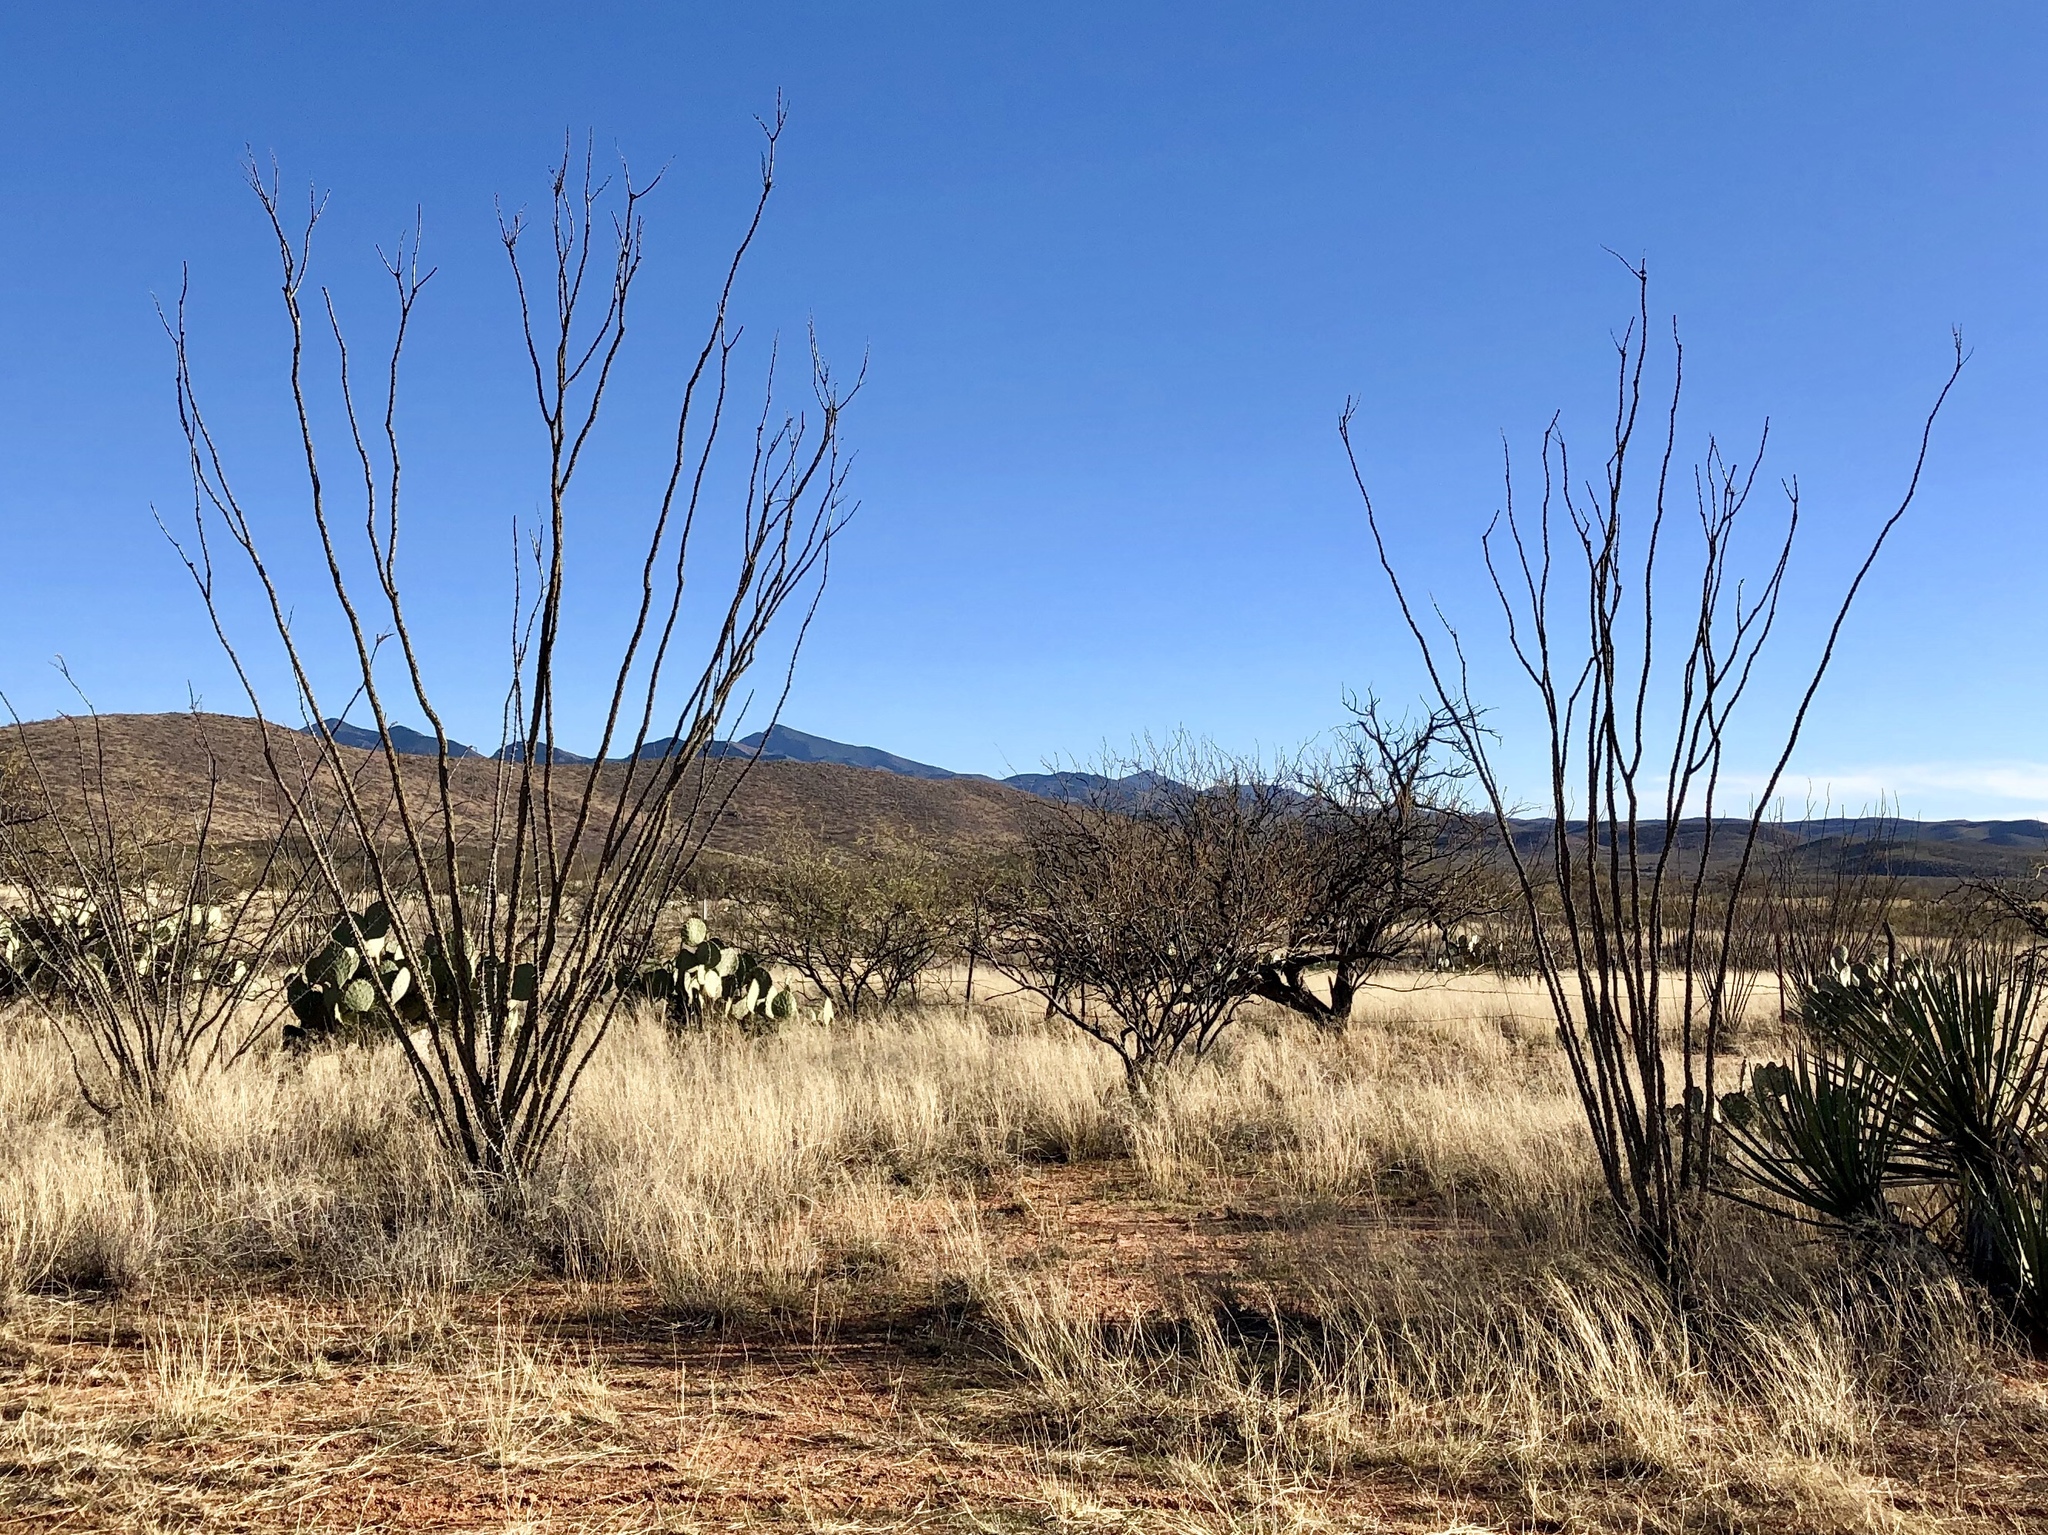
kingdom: Plantae
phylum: Tracheophyta
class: Magnoliopsida
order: Ericales
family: Fouquieriaceae
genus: Fouquieria
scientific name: Fouquieria splendens
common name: Vine-cactus
